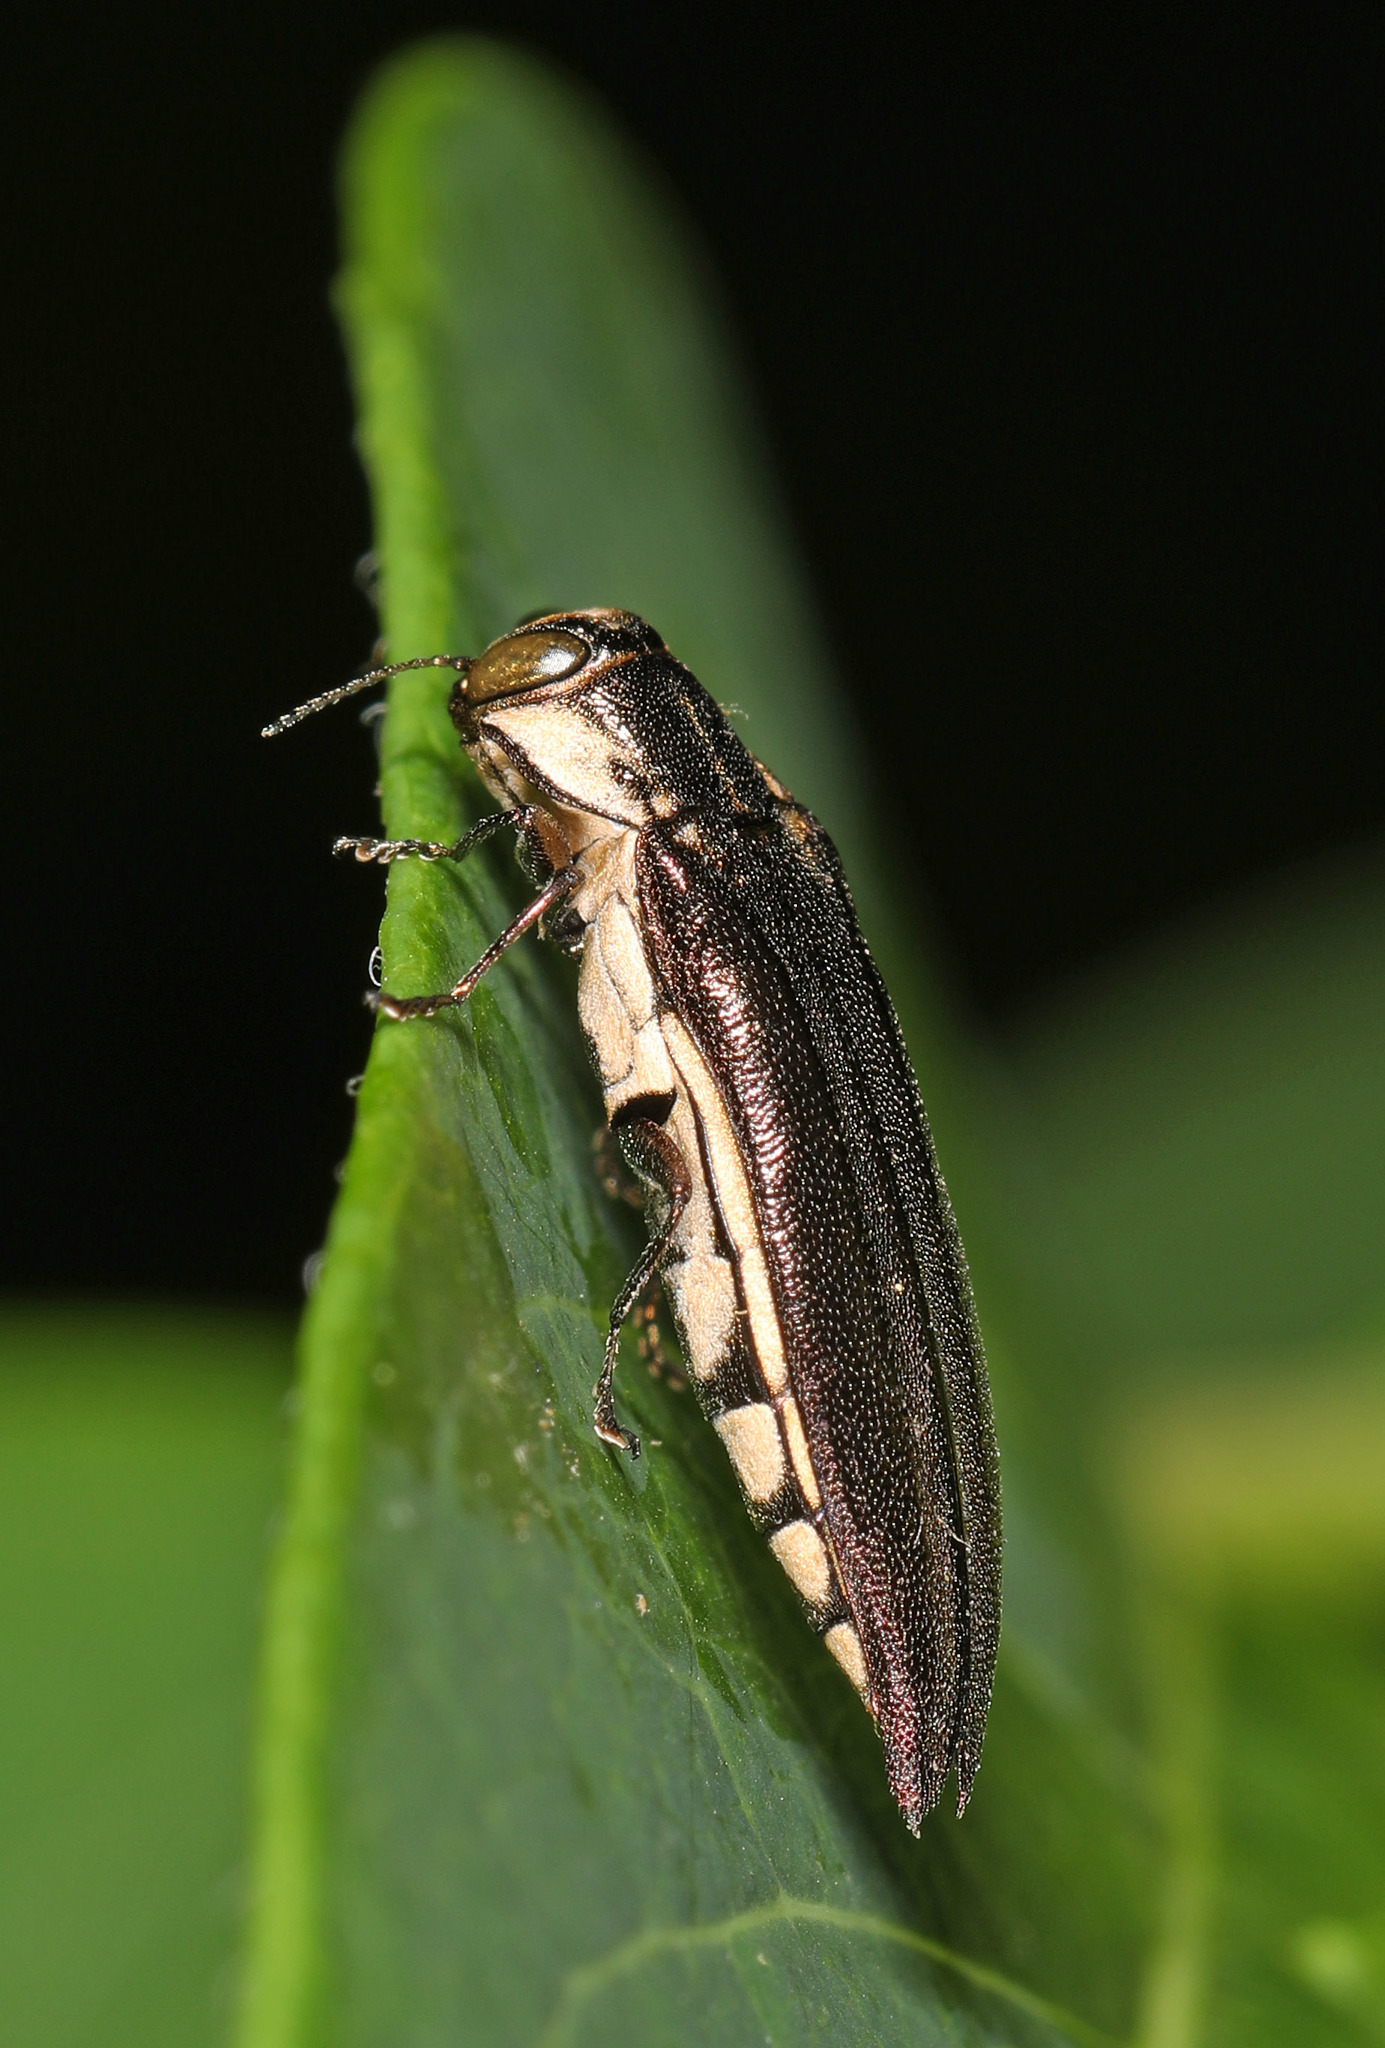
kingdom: Animalia
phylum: Arthropoda
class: Insecta
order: Coleoptera
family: Buprestidae
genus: Agrilus
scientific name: Agrilus ferrisi
